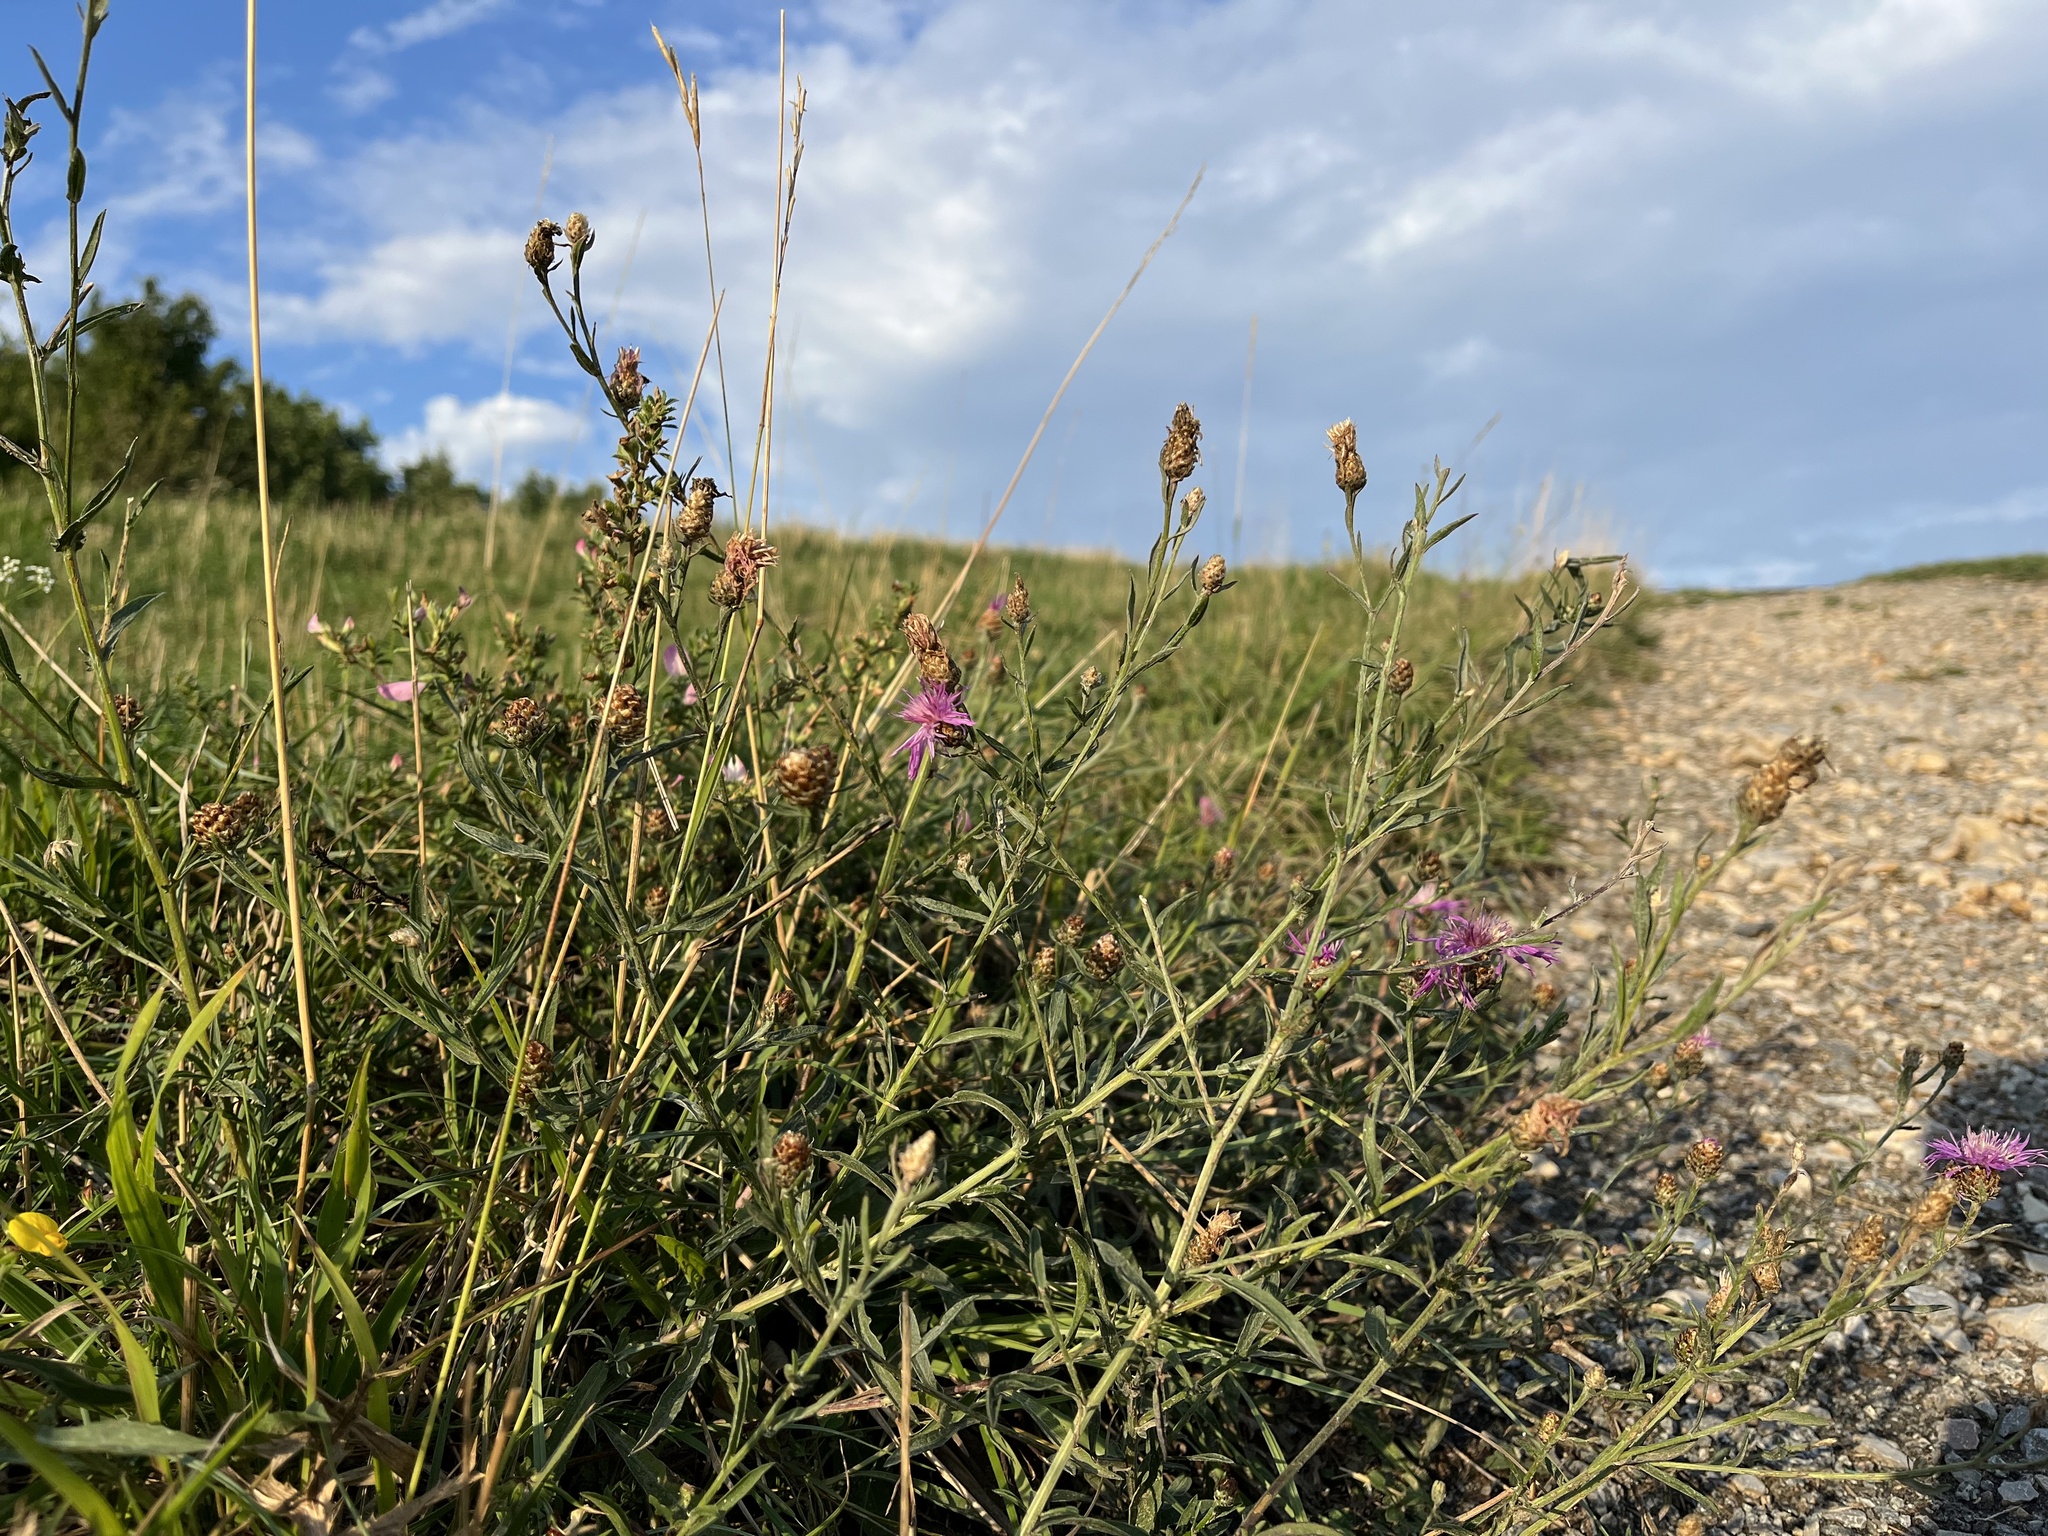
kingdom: Plantae
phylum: Tracheophyta
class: Magnoliopsida
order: Asterales
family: Asteraceae
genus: Centaurea
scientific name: Centaurea jacea
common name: Brown knapweed
